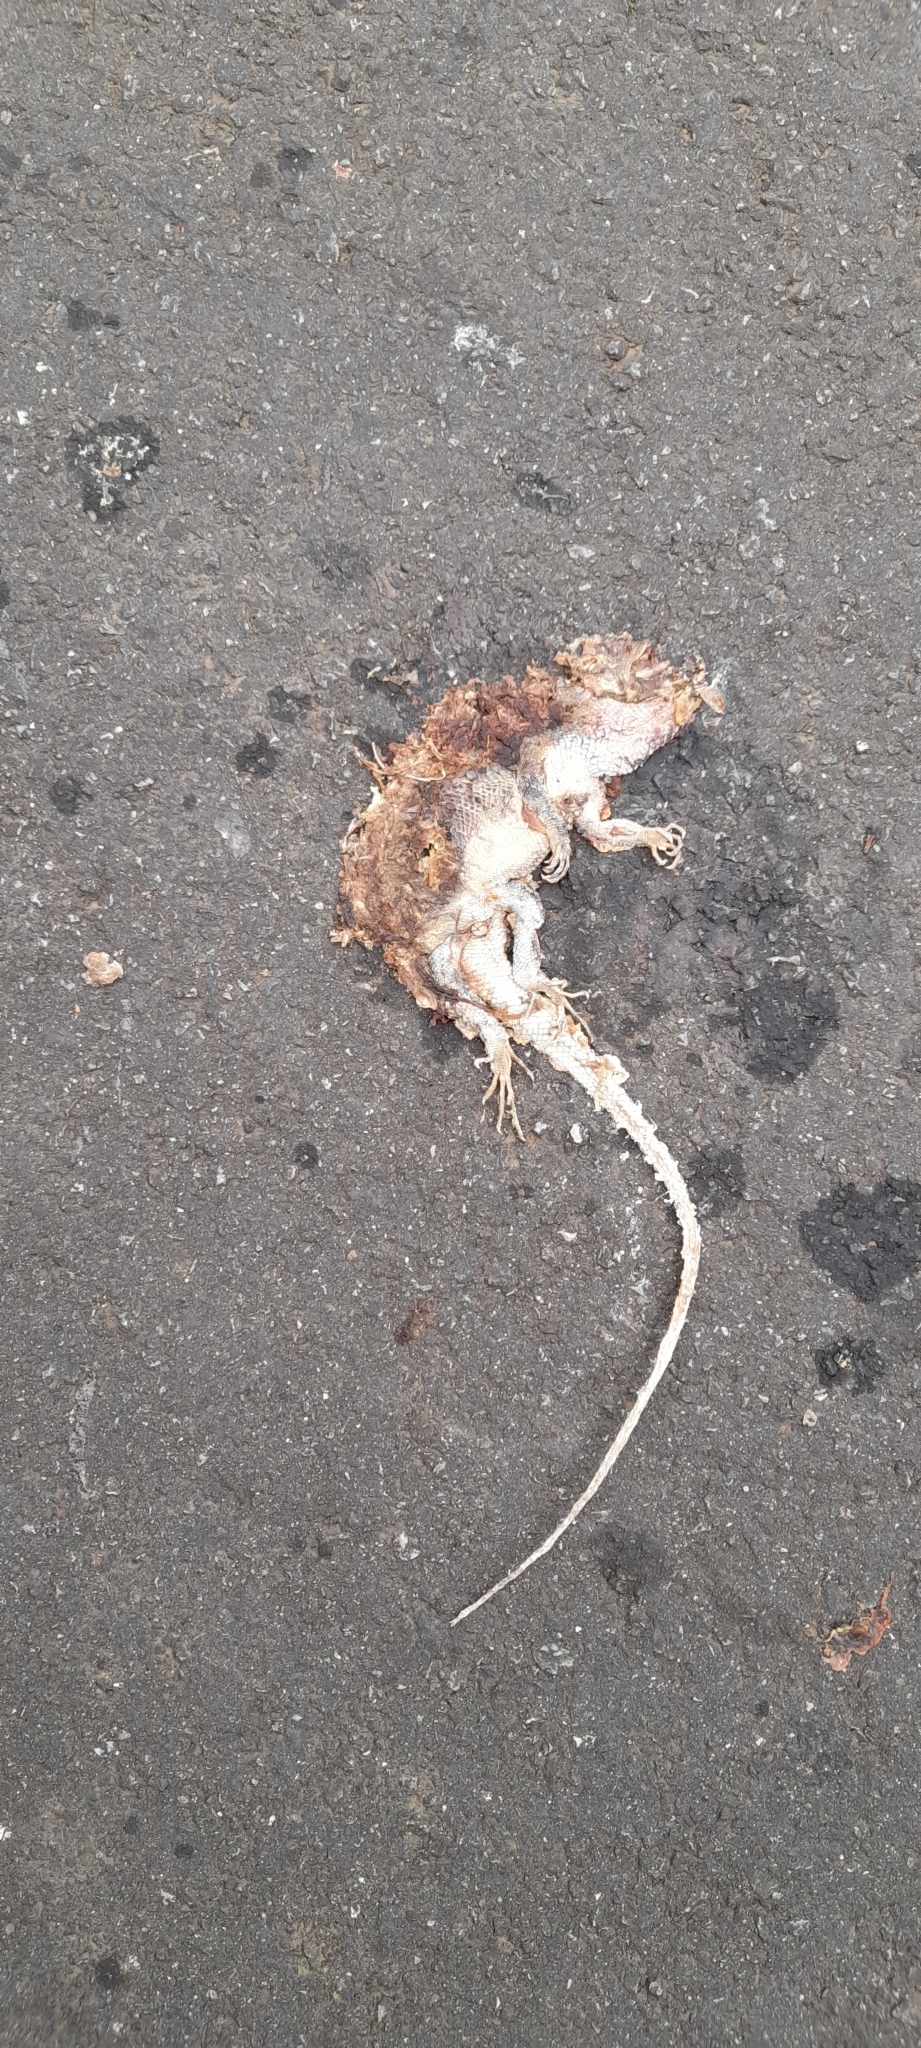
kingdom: Animalia
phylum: Chordata
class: Squamata
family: Agamidae
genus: Calotes
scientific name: Calotes versicolor
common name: Oriental garden lizard
